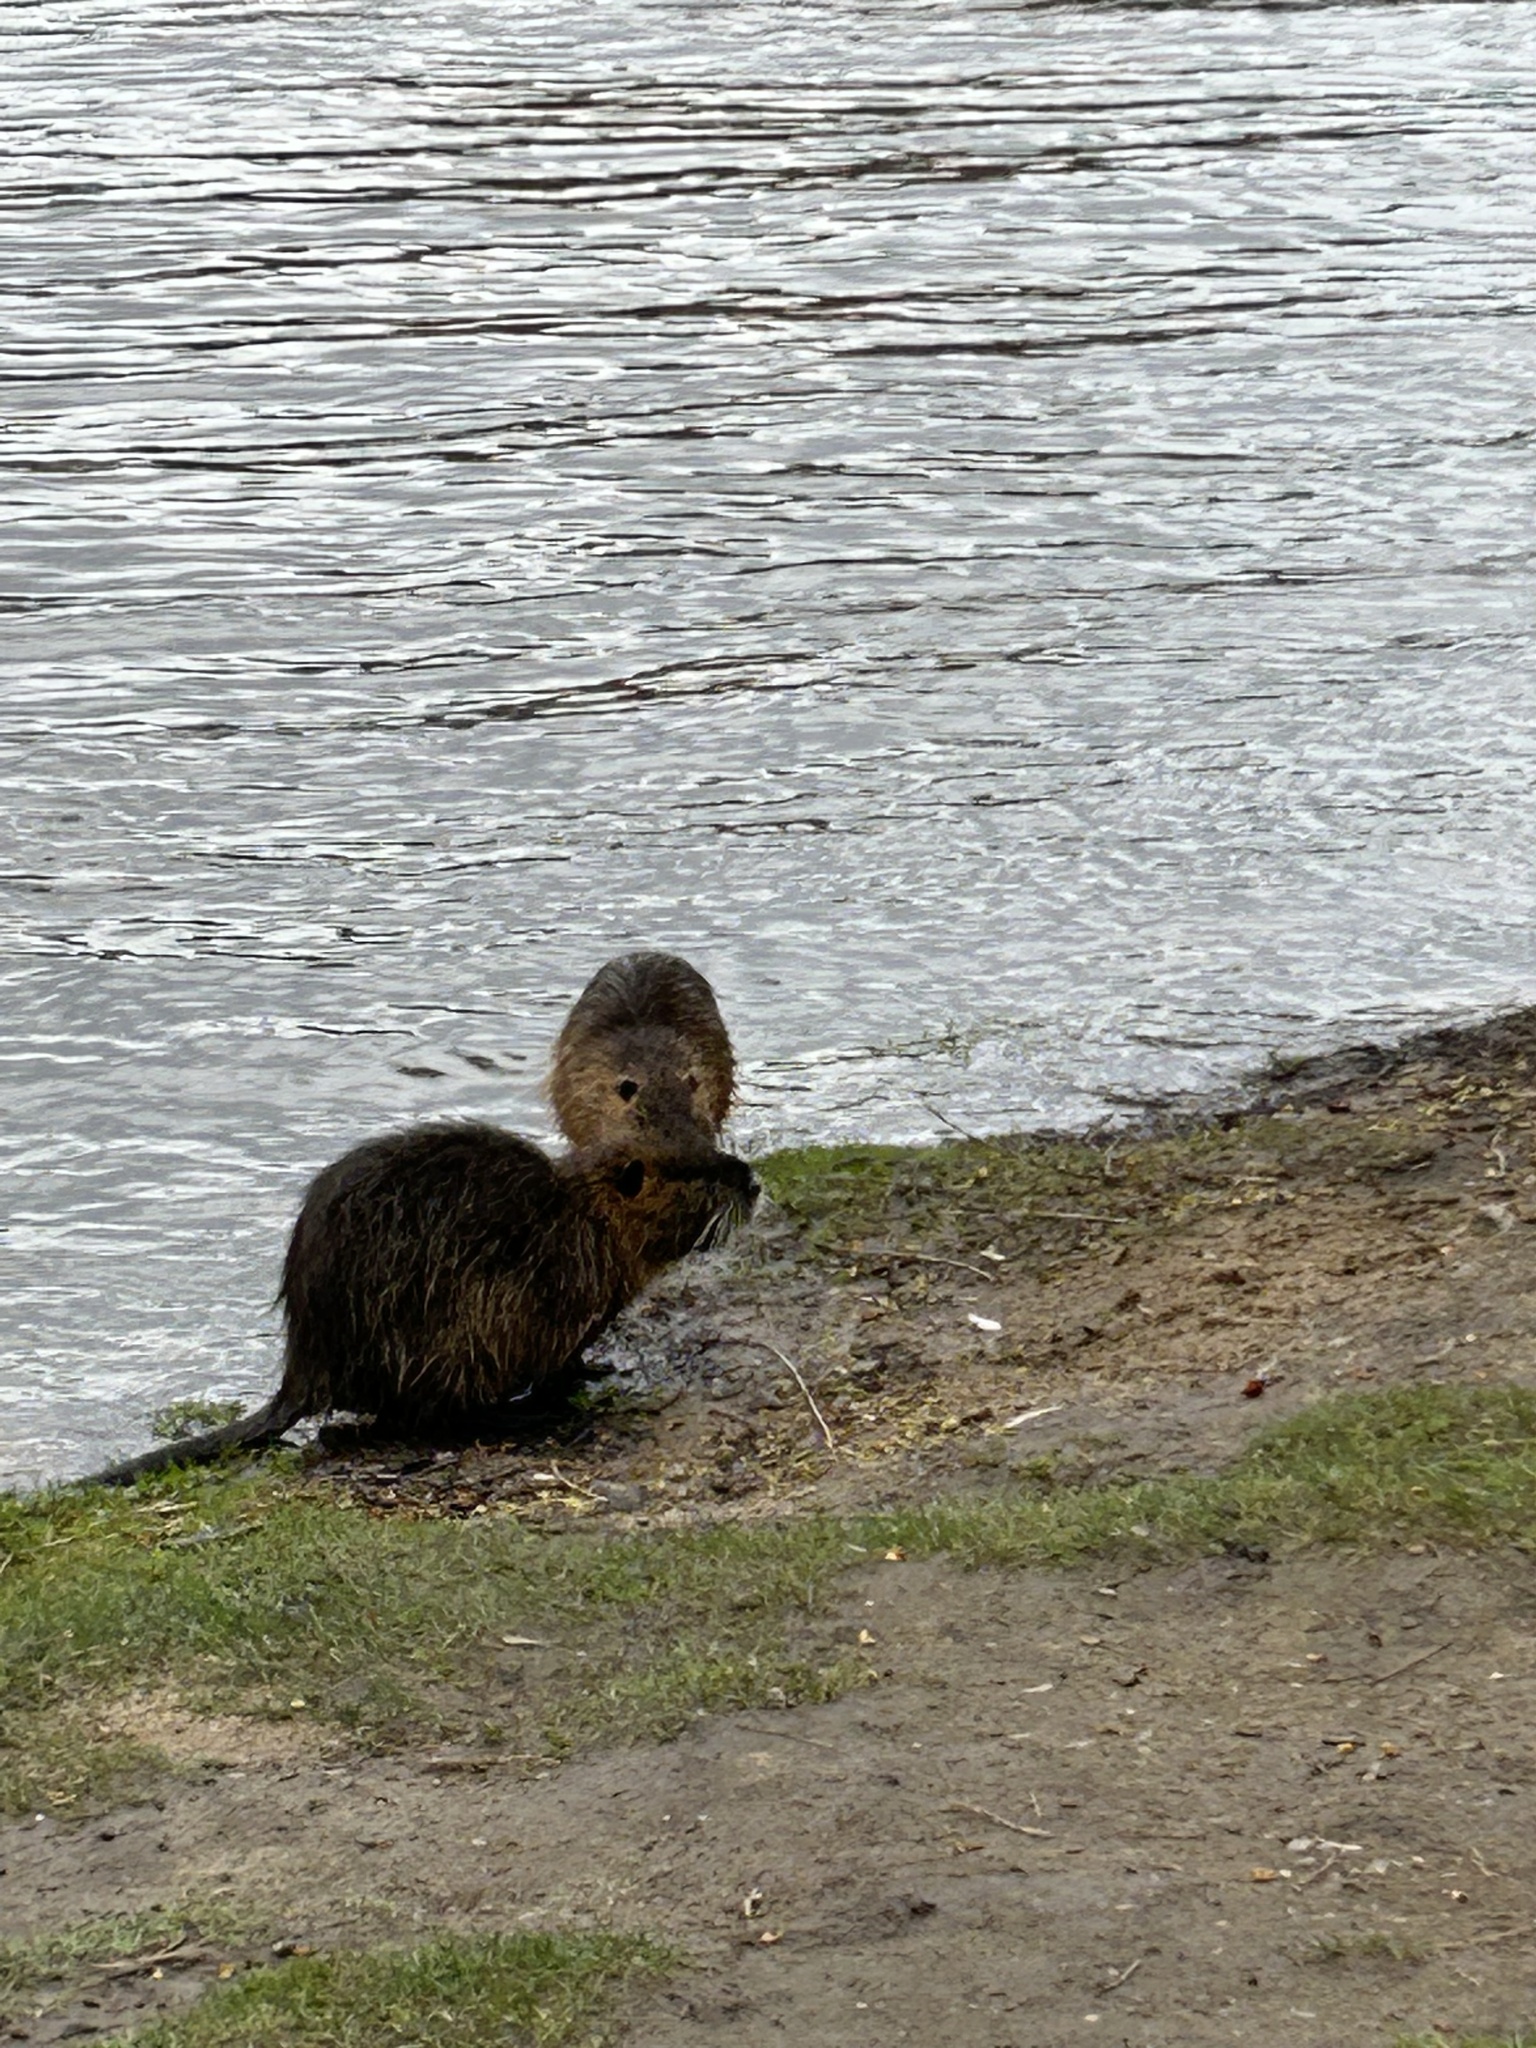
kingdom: Animalia
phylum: Chordata
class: Mammalia
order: Rodentia
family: Myocastoridae
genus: Myocastor
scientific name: Myocastor coypus
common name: Coypu
